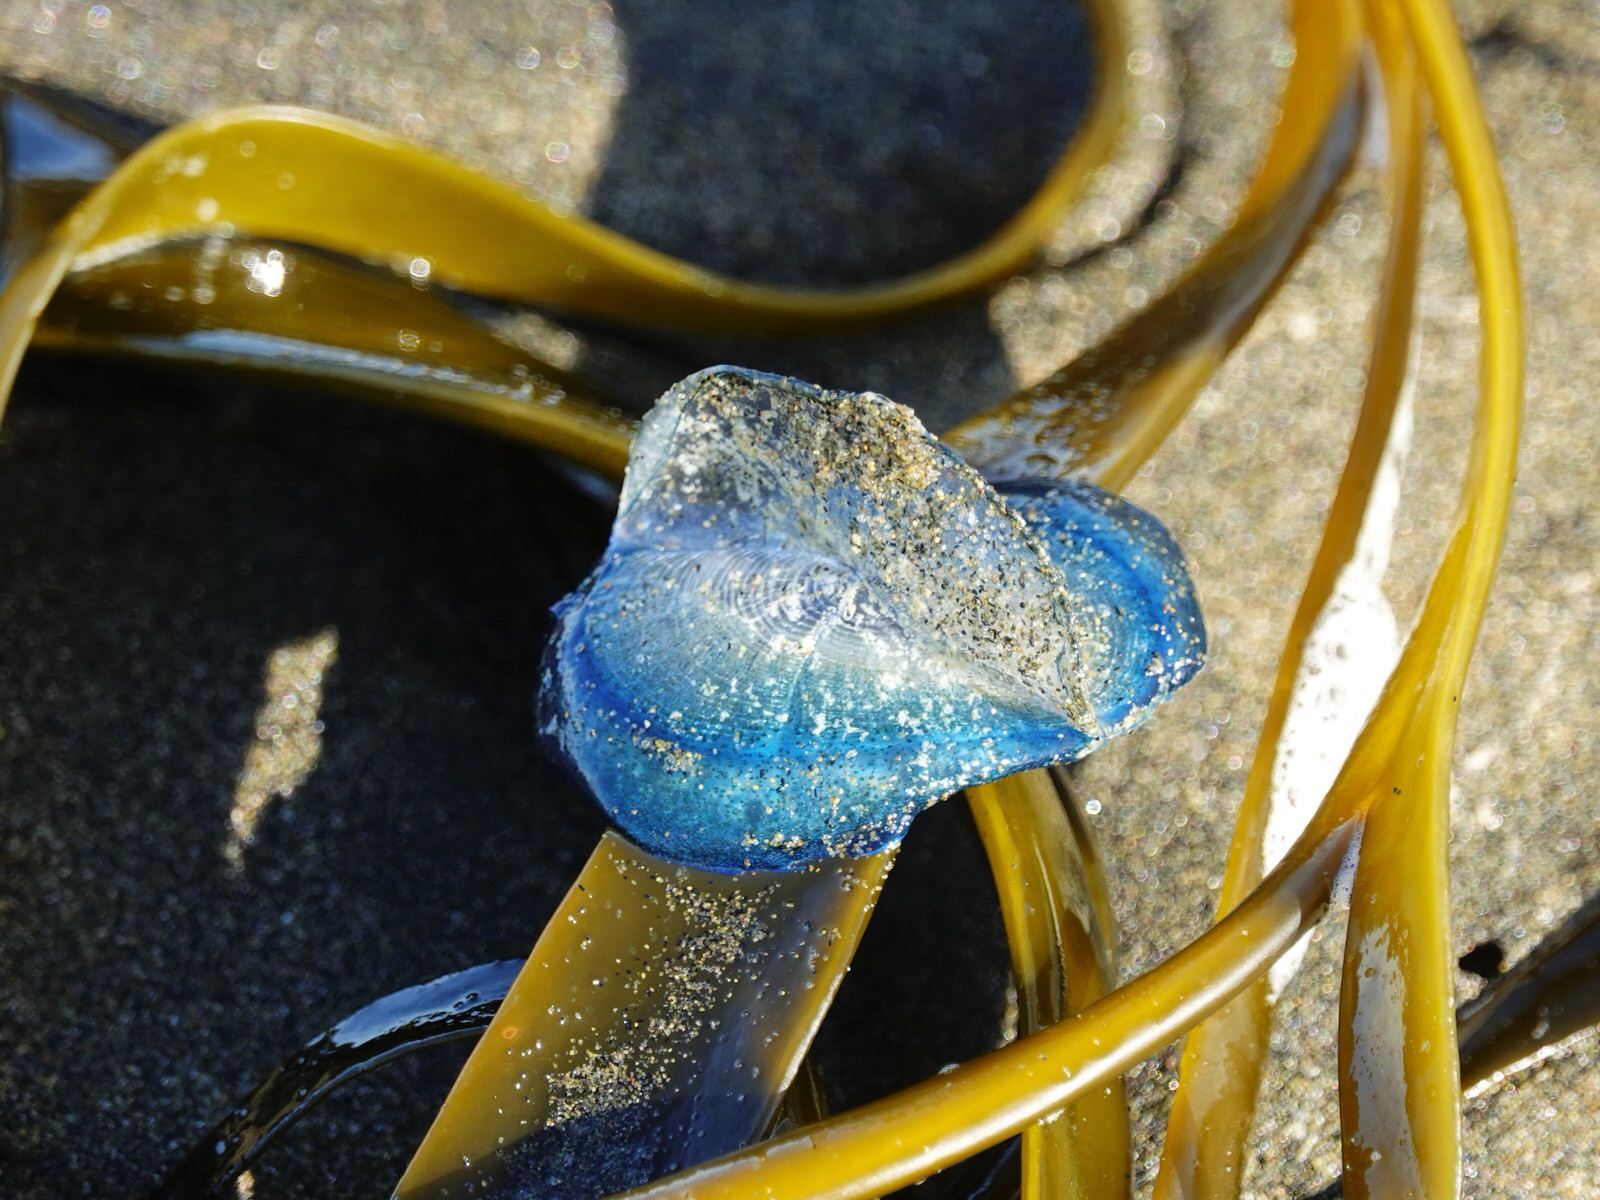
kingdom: Animalia
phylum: Cnidaria
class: Hydrozoa
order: Anthoathecata
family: Porpitidae
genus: Velella
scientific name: Velella velella
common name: By-the-wind-sailor
